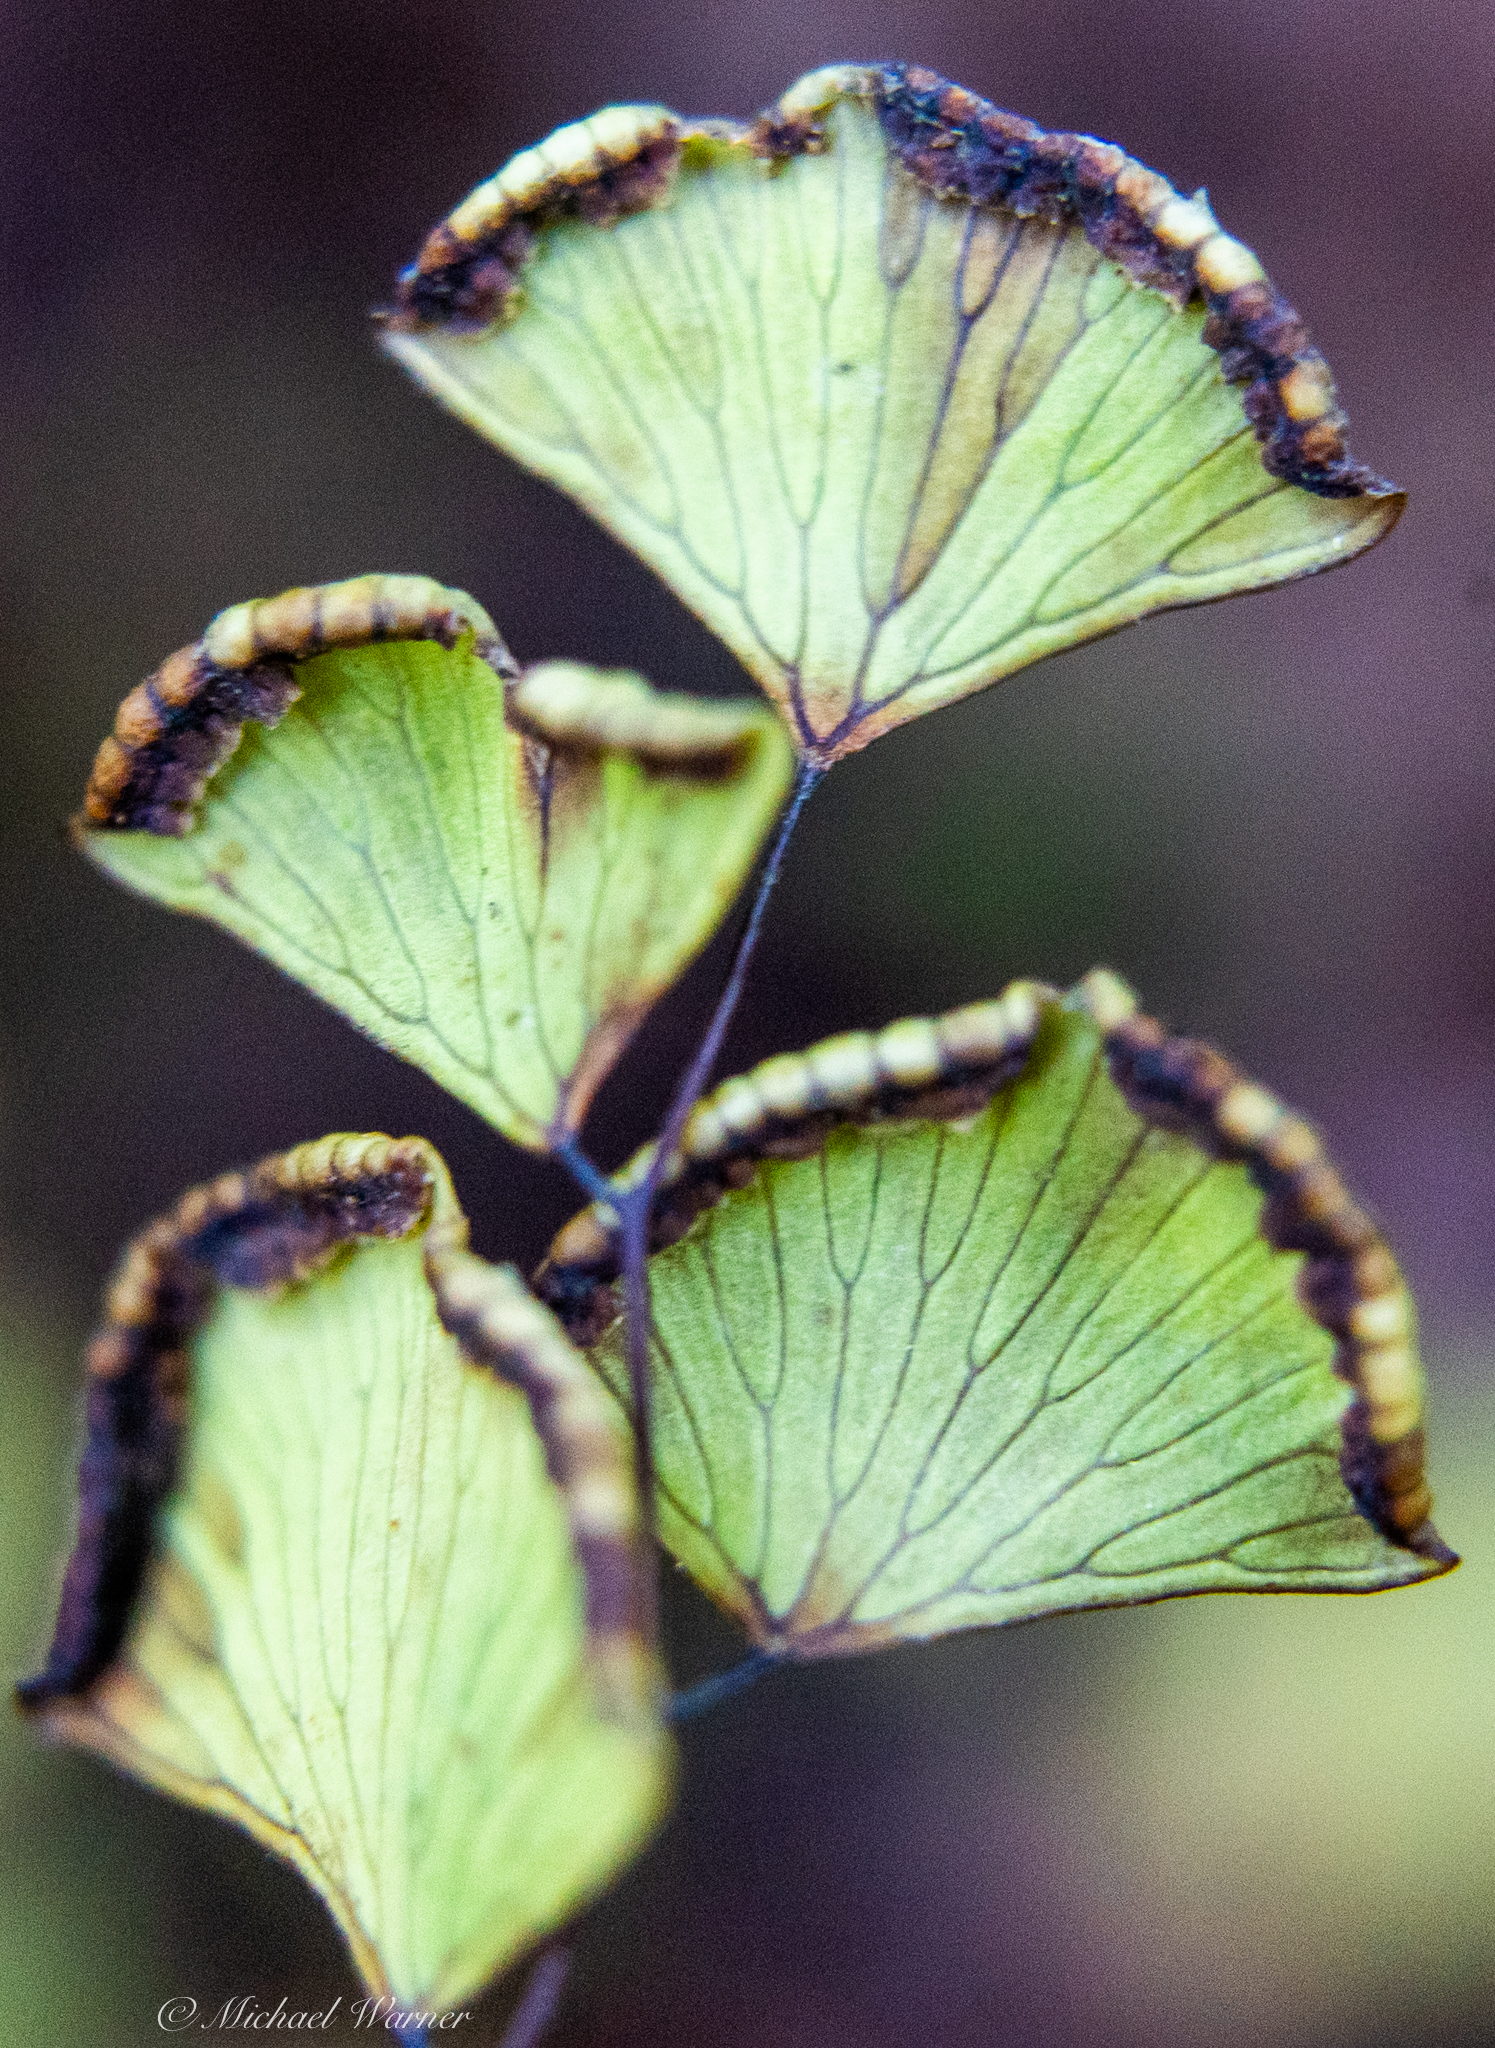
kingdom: Plantae
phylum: Tracheophyta
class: Polypodiopsida
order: Polypodiales
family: Pteridaceae
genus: Adiantum
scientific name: Adiantum jordanii
